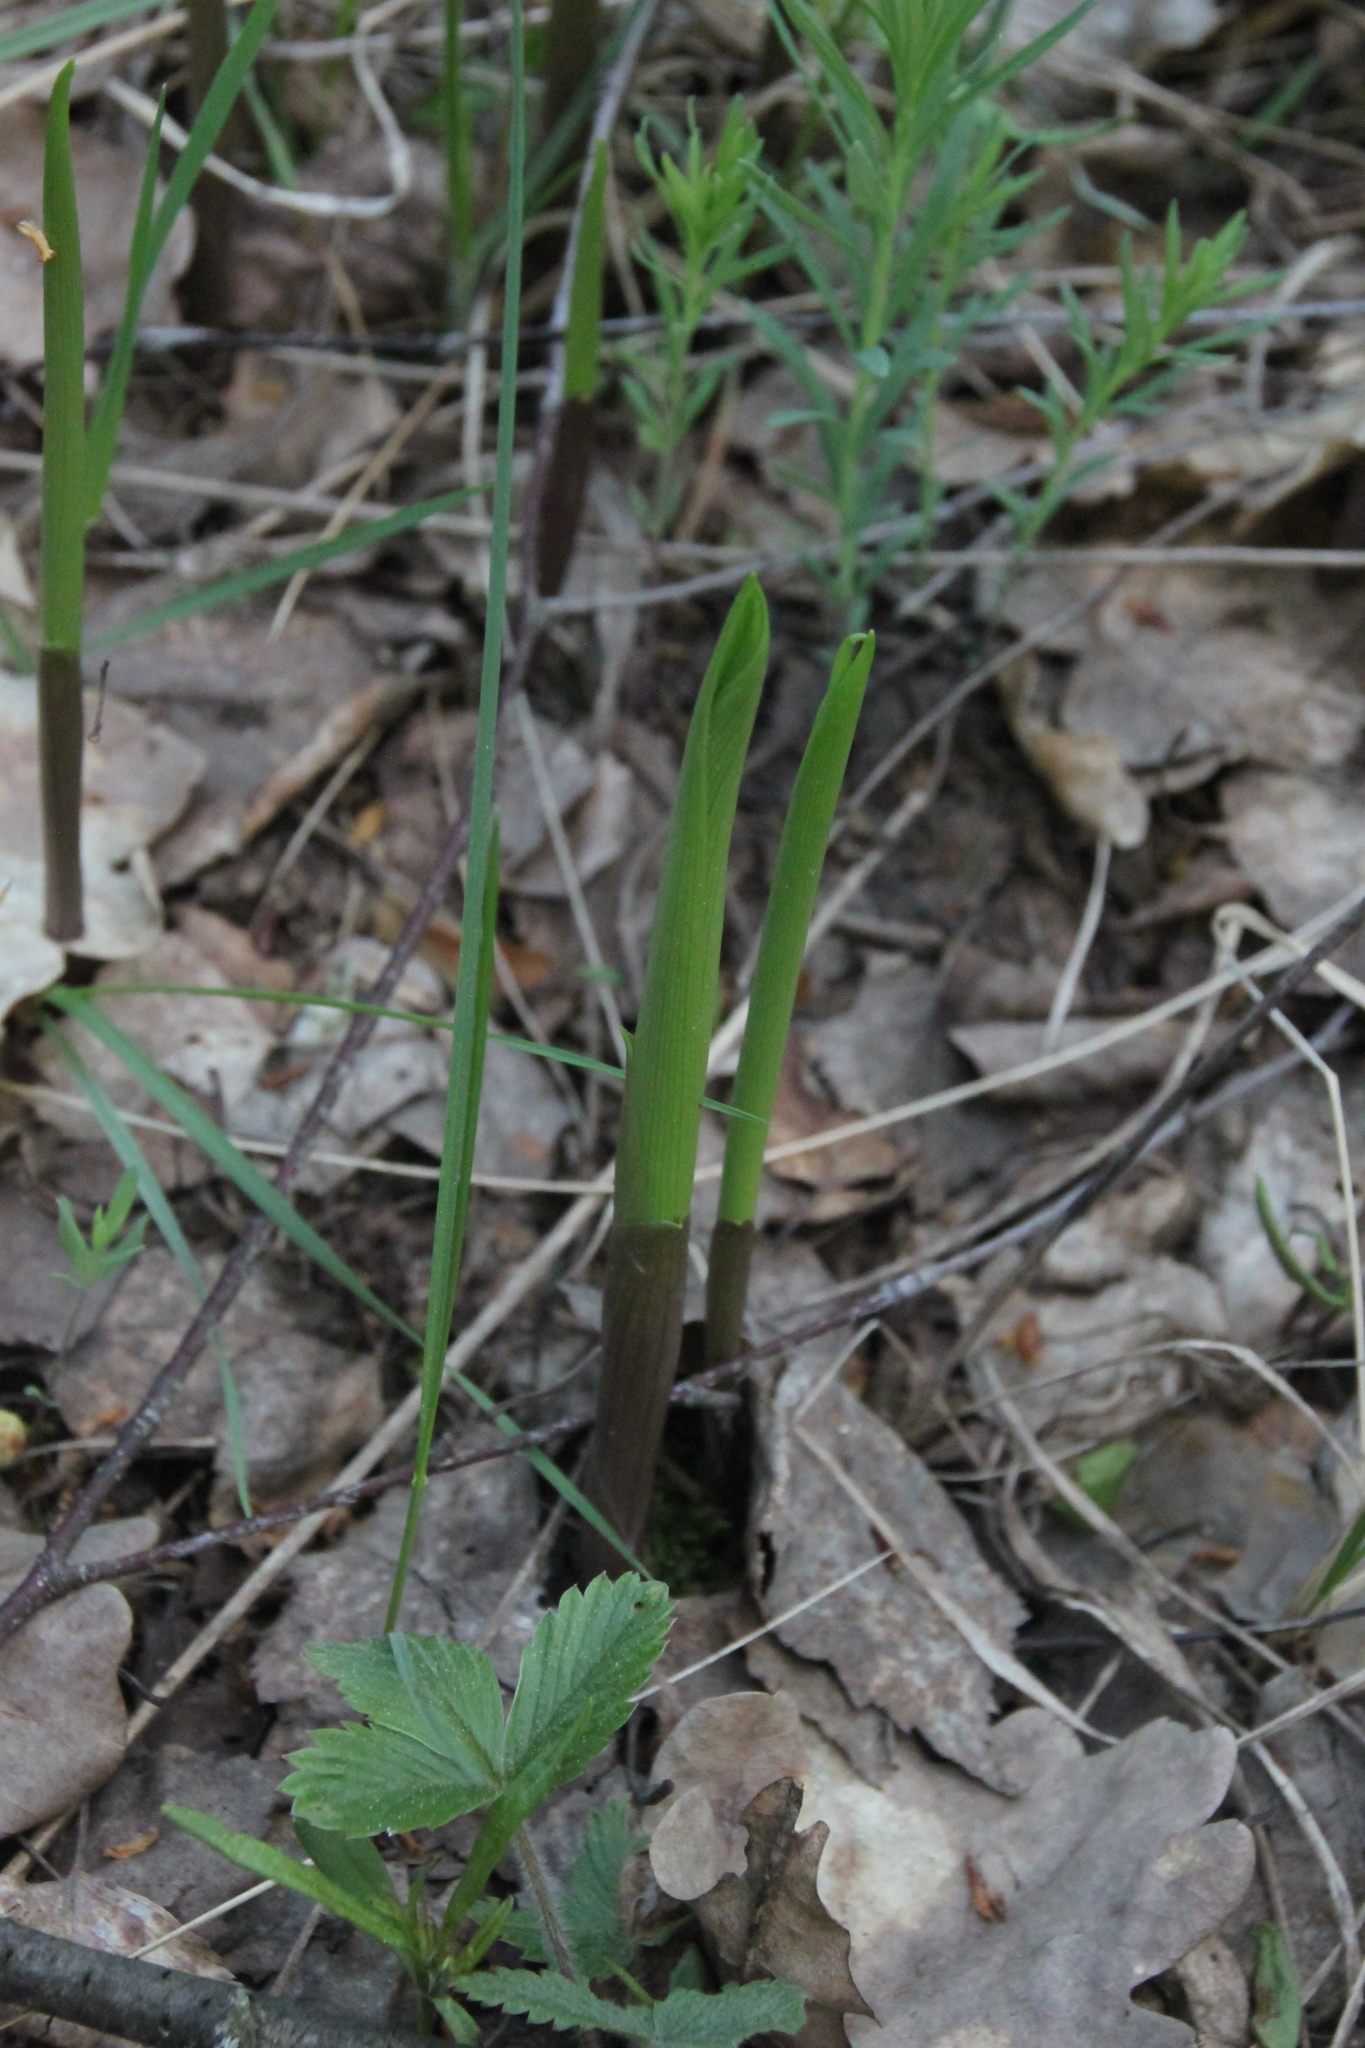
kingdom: Plantae
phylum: Tracheophyta
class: Liliopsida
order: Asparagales
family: Asparagaceae
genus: Convallaria
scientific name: Convallaria majalis
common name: Lily-of-the-valley
